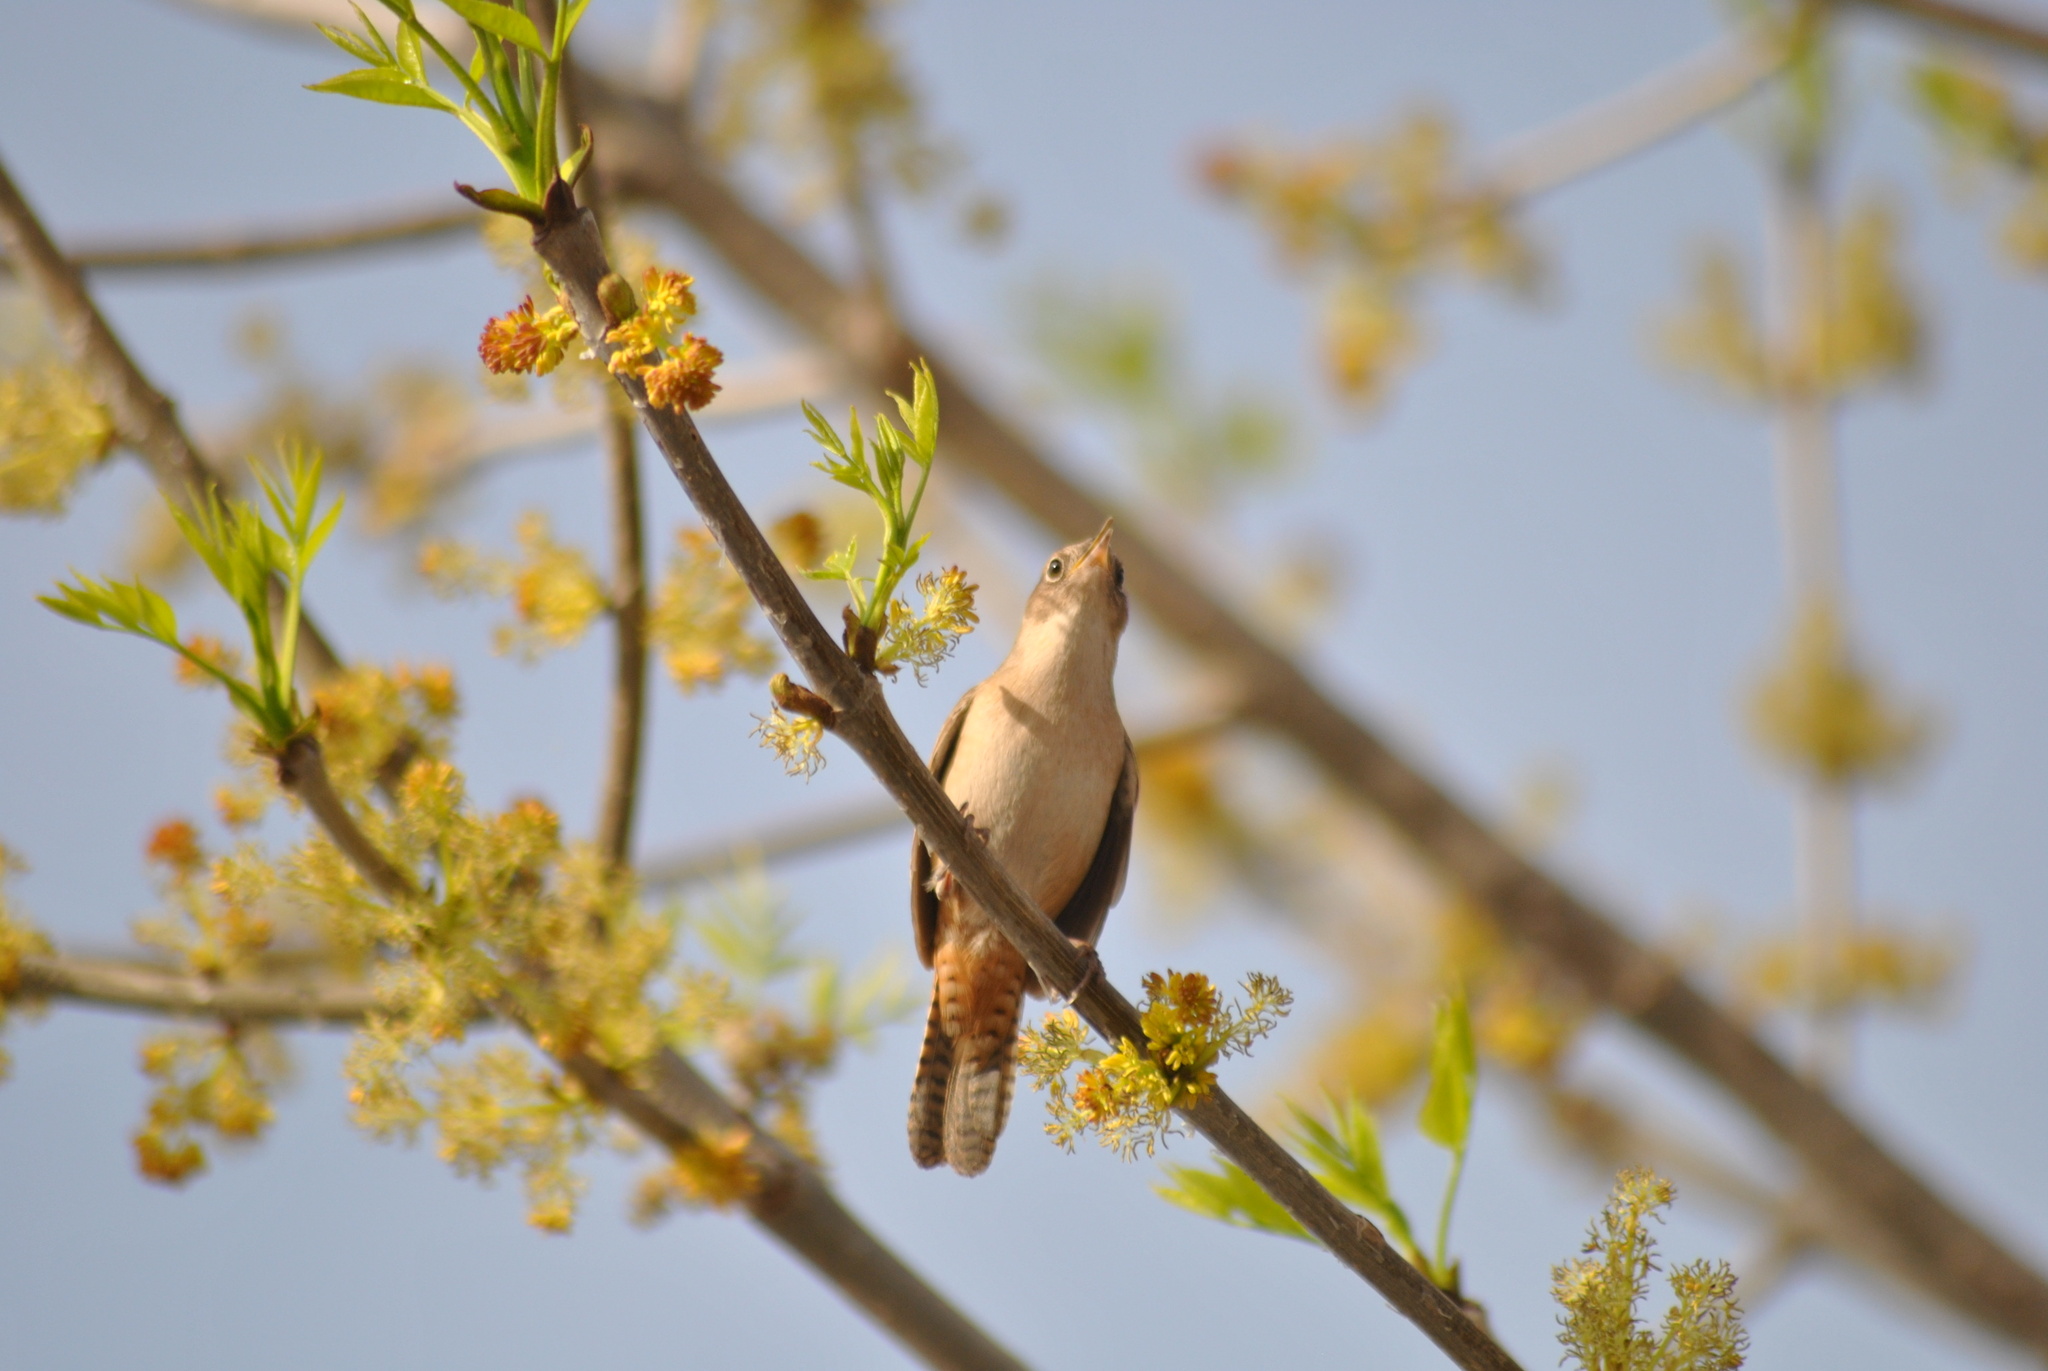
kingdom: Animalia
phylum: Chordata
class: Aves
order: Passeriformes
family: Troglodytidae
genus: Troglodytes
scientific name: Troglodytes aedon
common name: House wren
